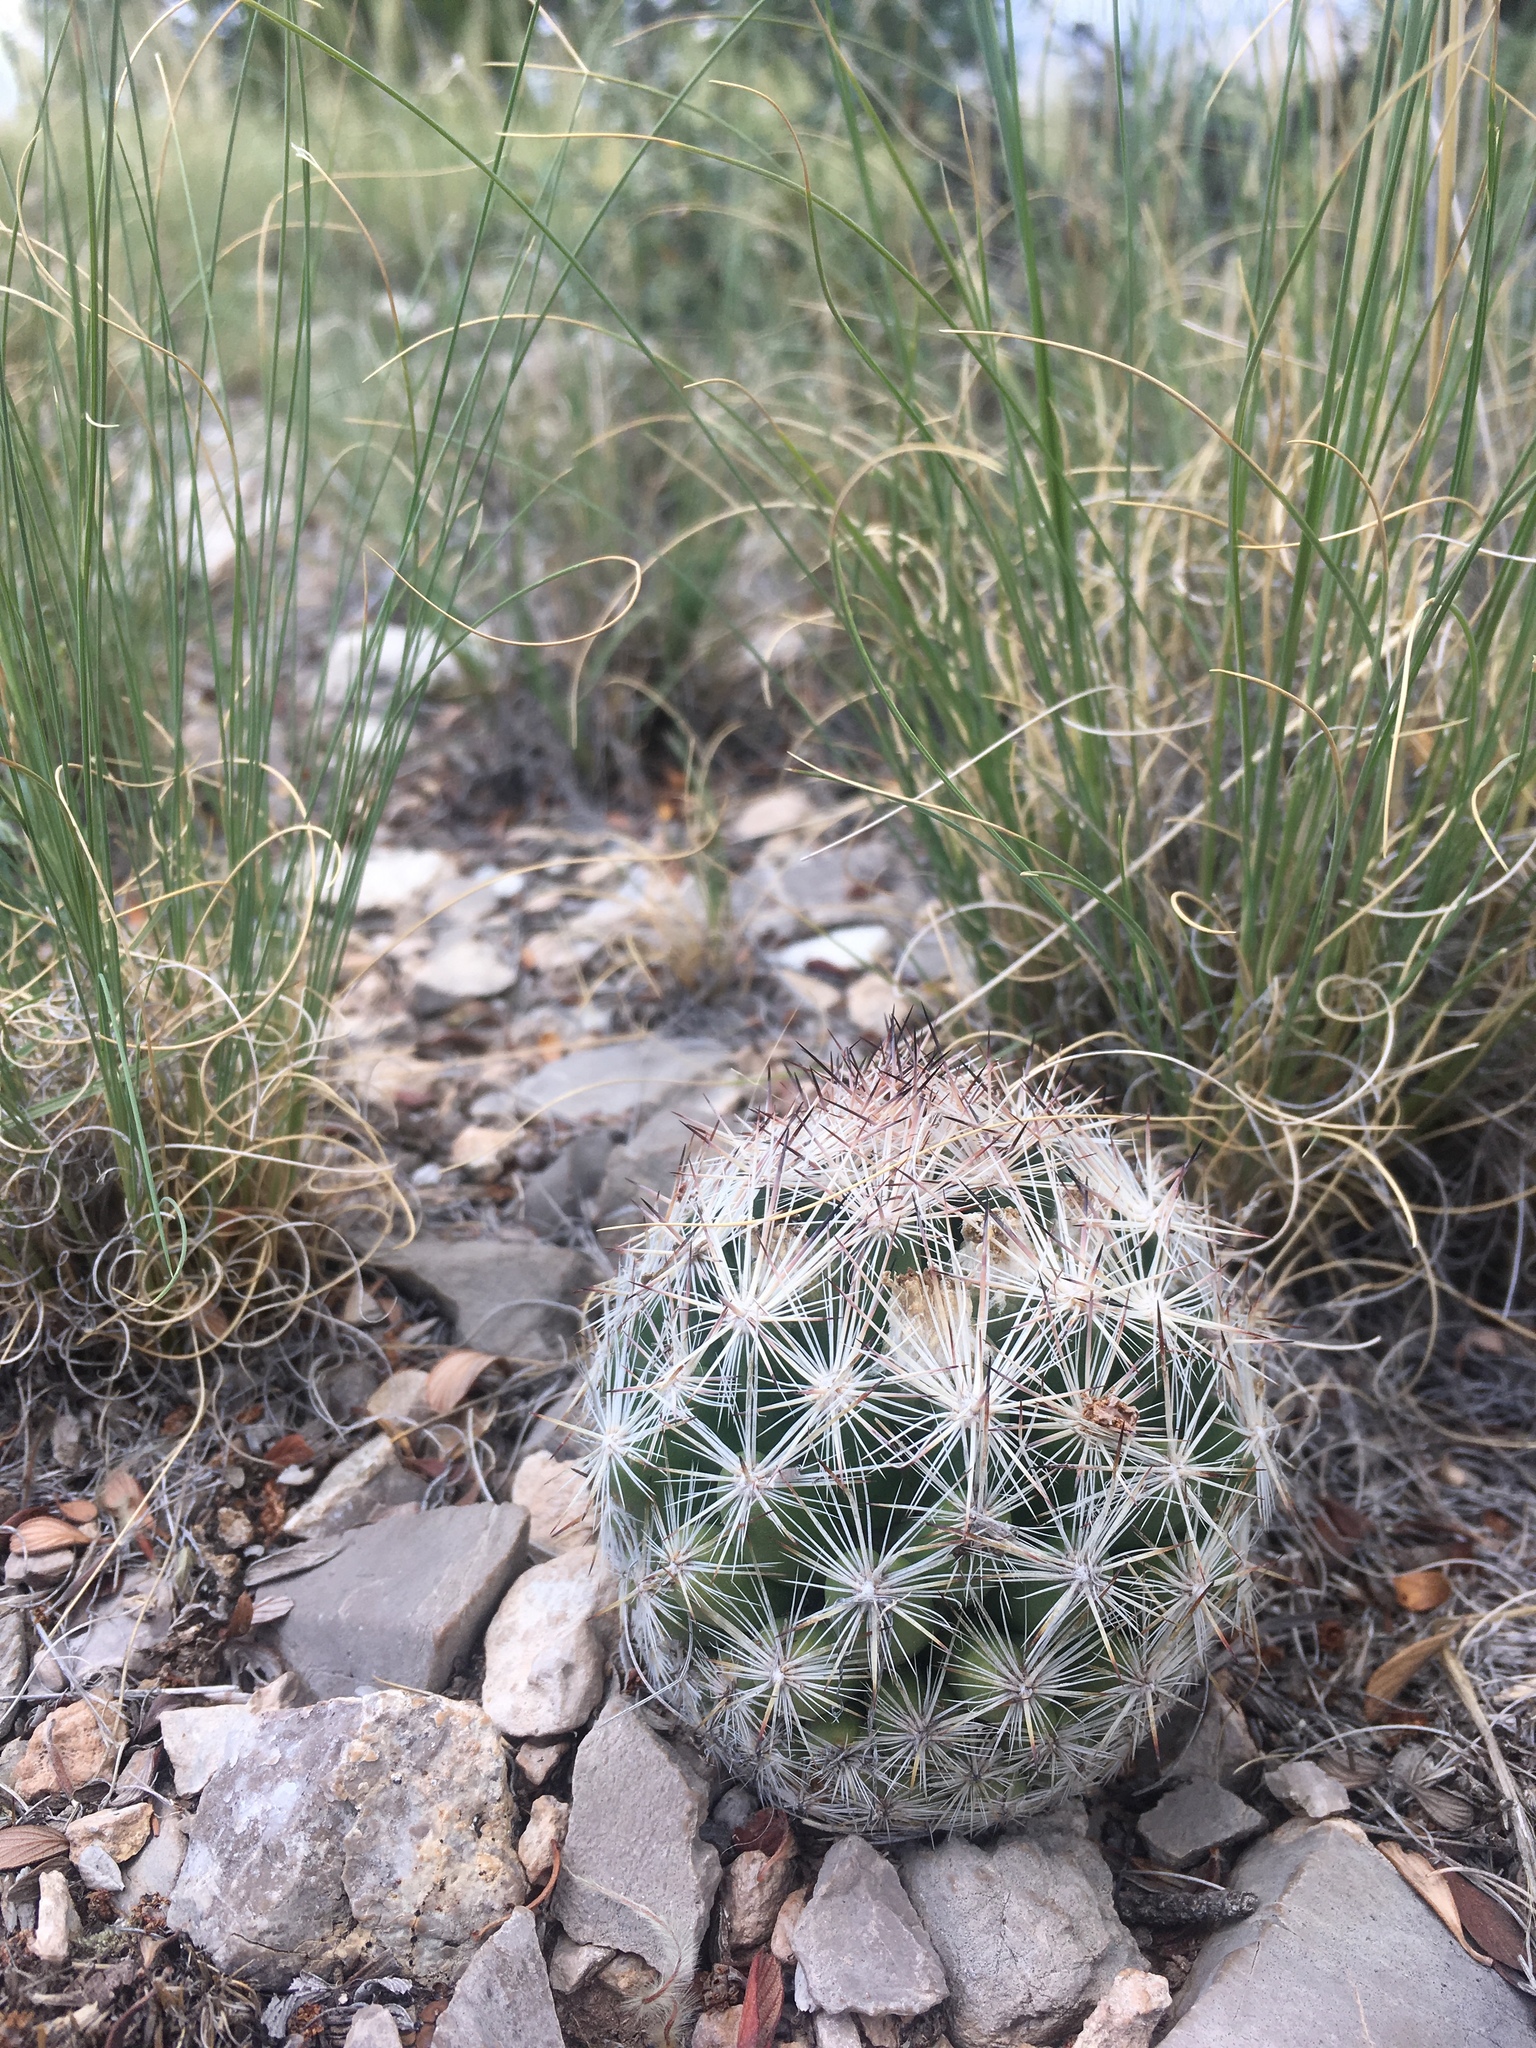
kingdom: Plantae
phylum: Tracheophyta
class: Magnoliopsida
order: Caryophyllales
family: Cactaceae
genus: Pelecyphora
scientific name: Pelecyphora vivipara
